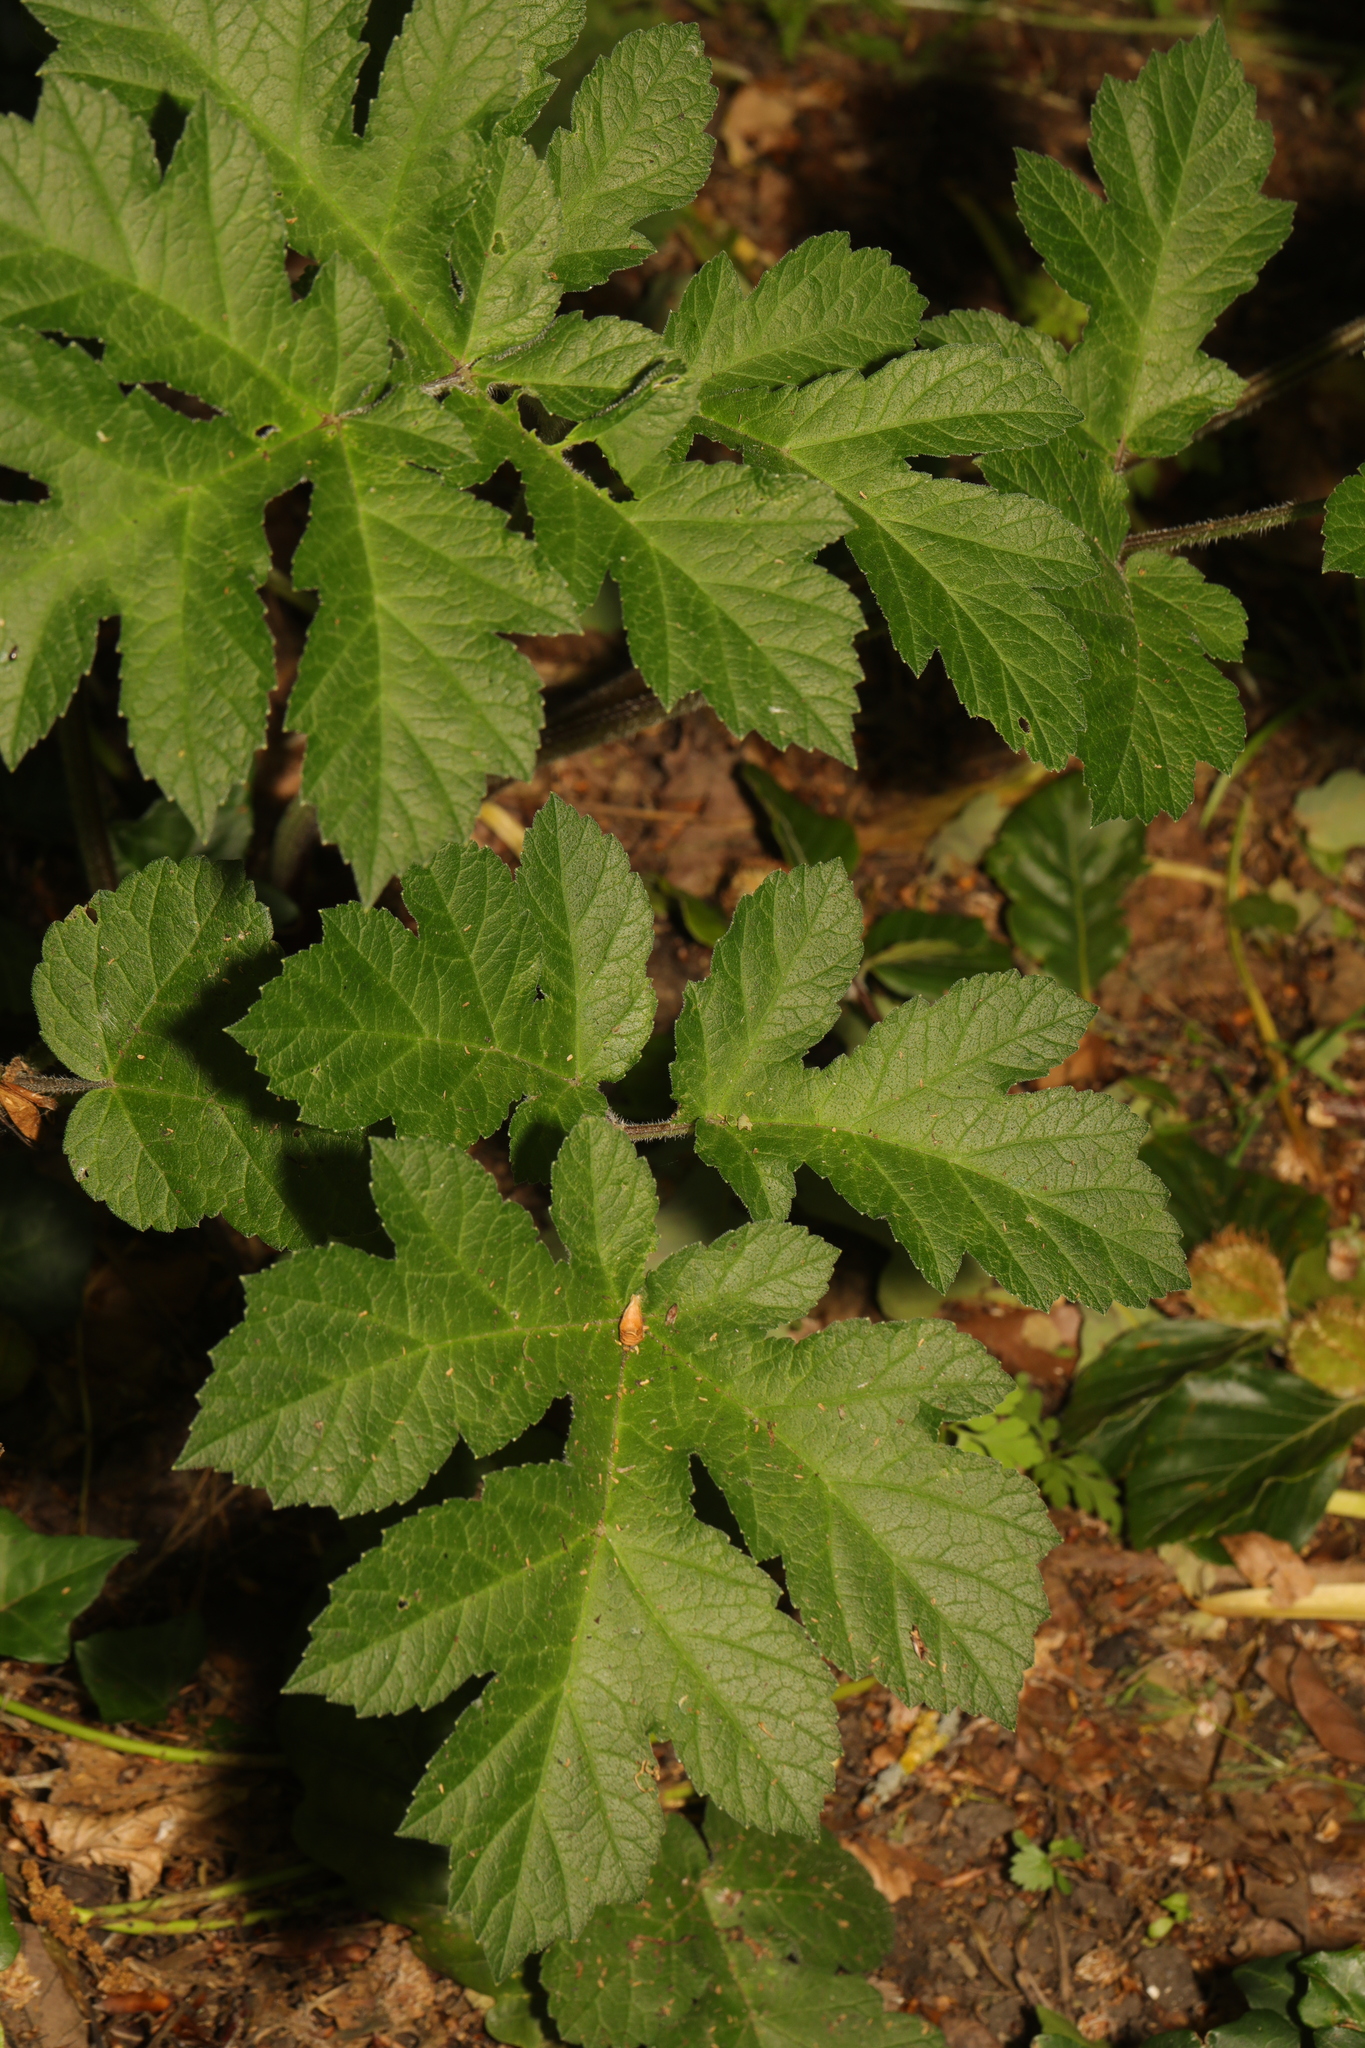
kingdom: Plantae
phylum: Tracheophyta
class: Magnoliopsida
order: Apiales
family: Apiaceae
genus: Heracleum
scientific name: Heracleum sphondylium
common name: Hogweed
